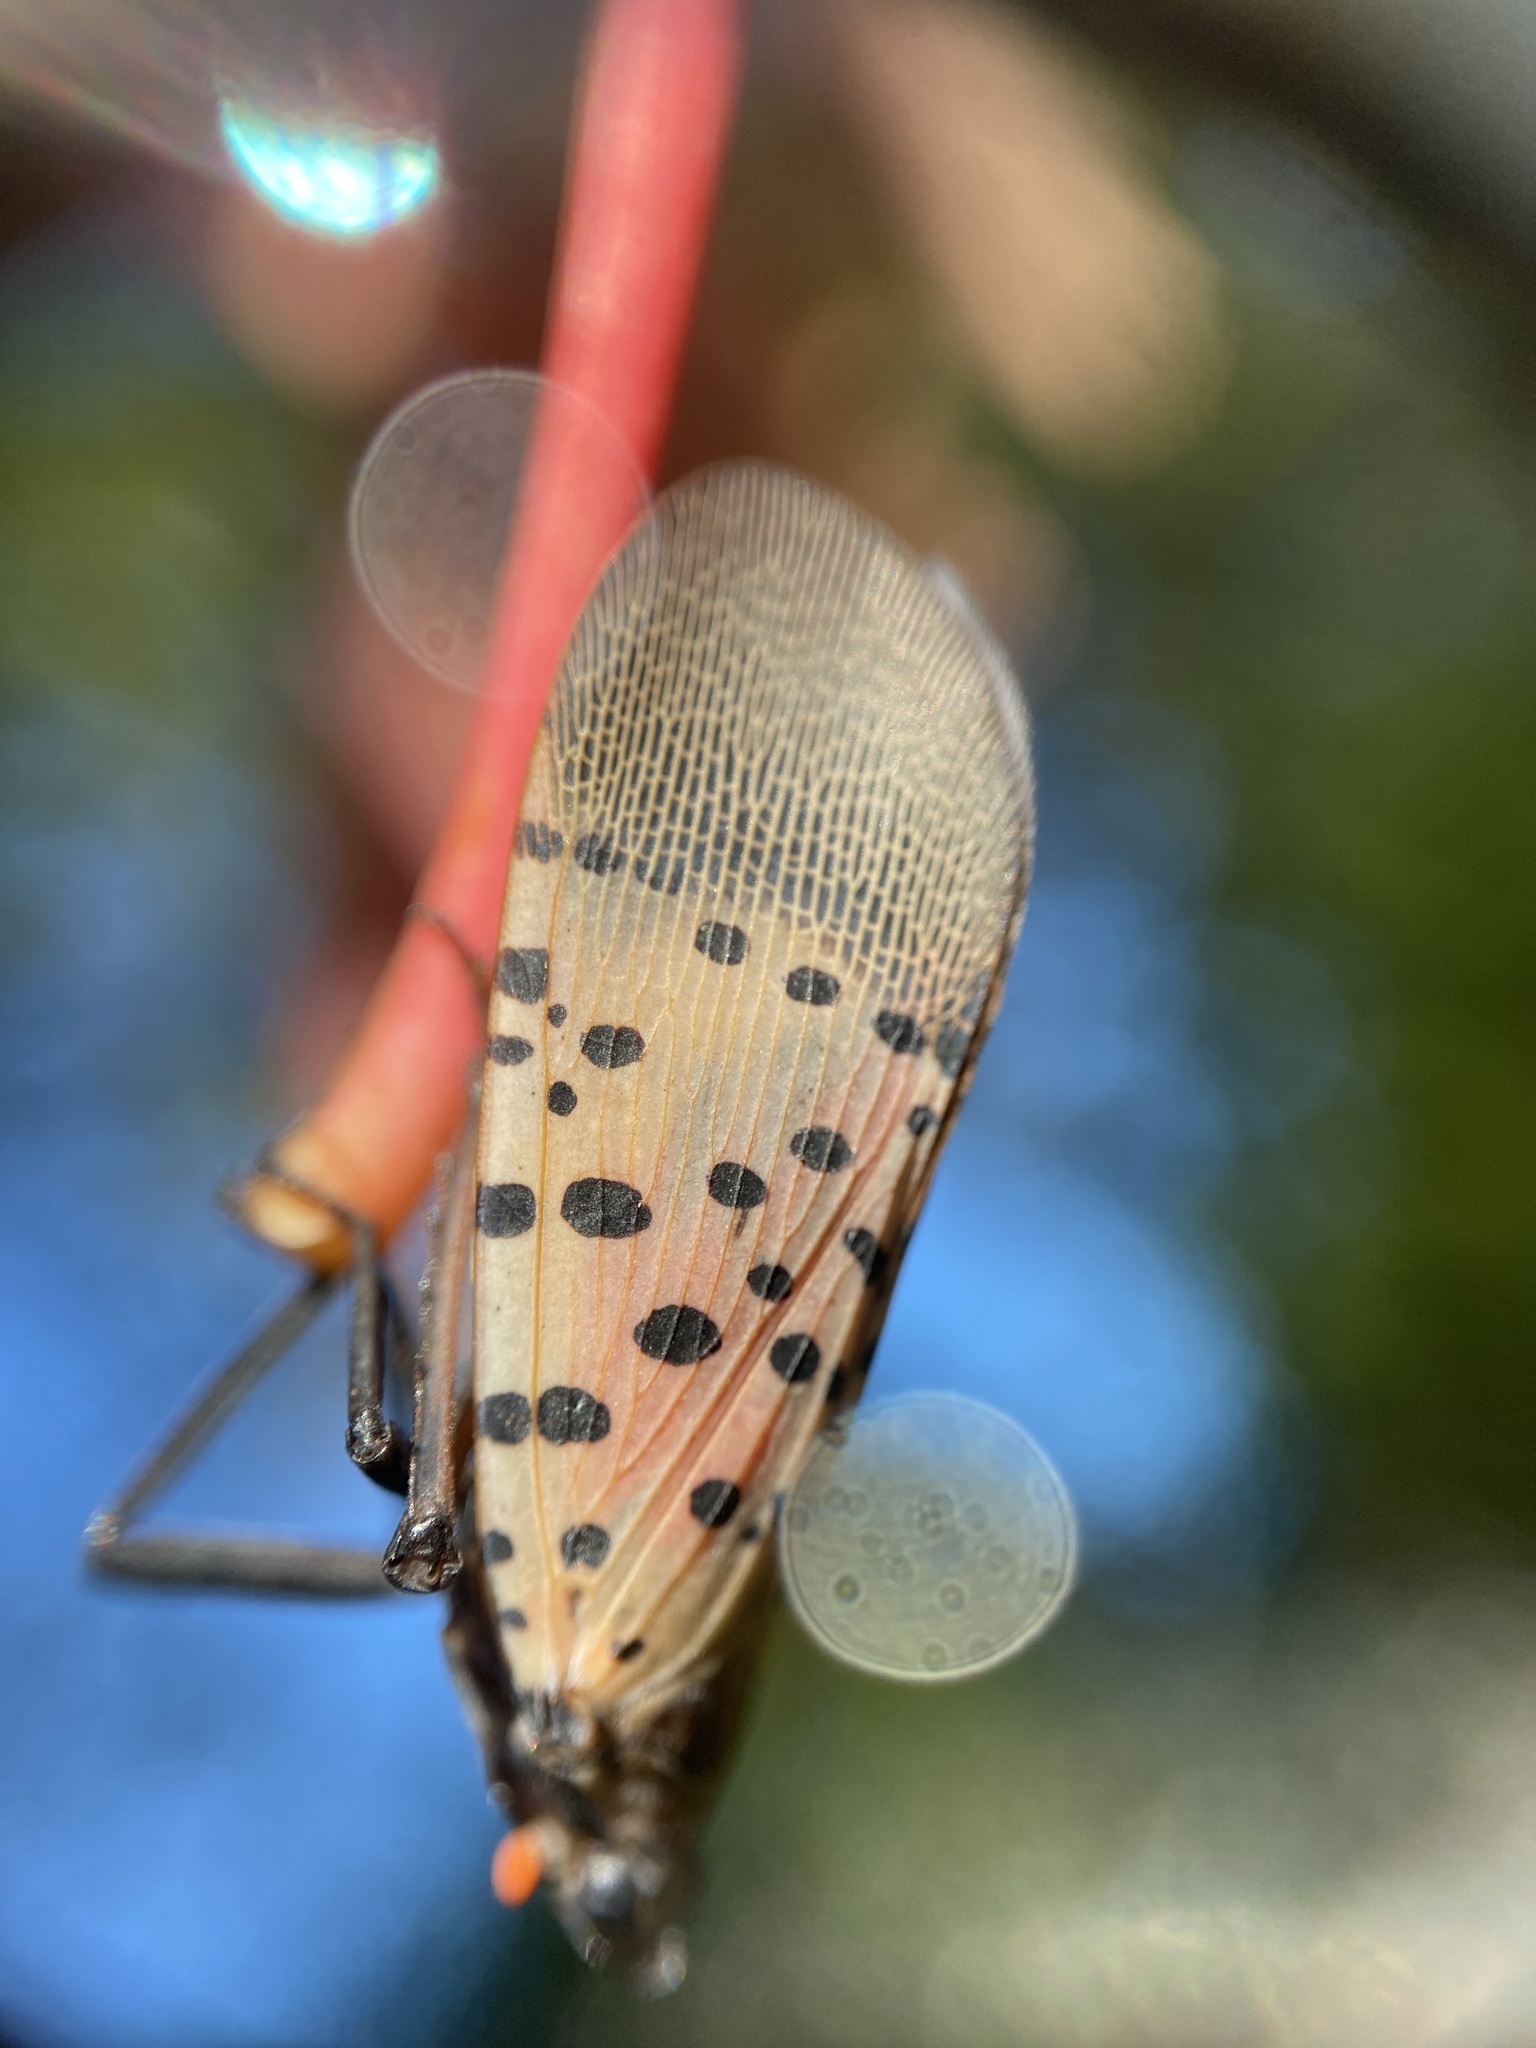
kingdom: Animalia
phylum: Arthropoda
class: Insecta
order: Hemiptera
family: Fulgoridae
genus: Lycorma
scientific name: Lycorma delicatula
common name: Spotted lanternfly
